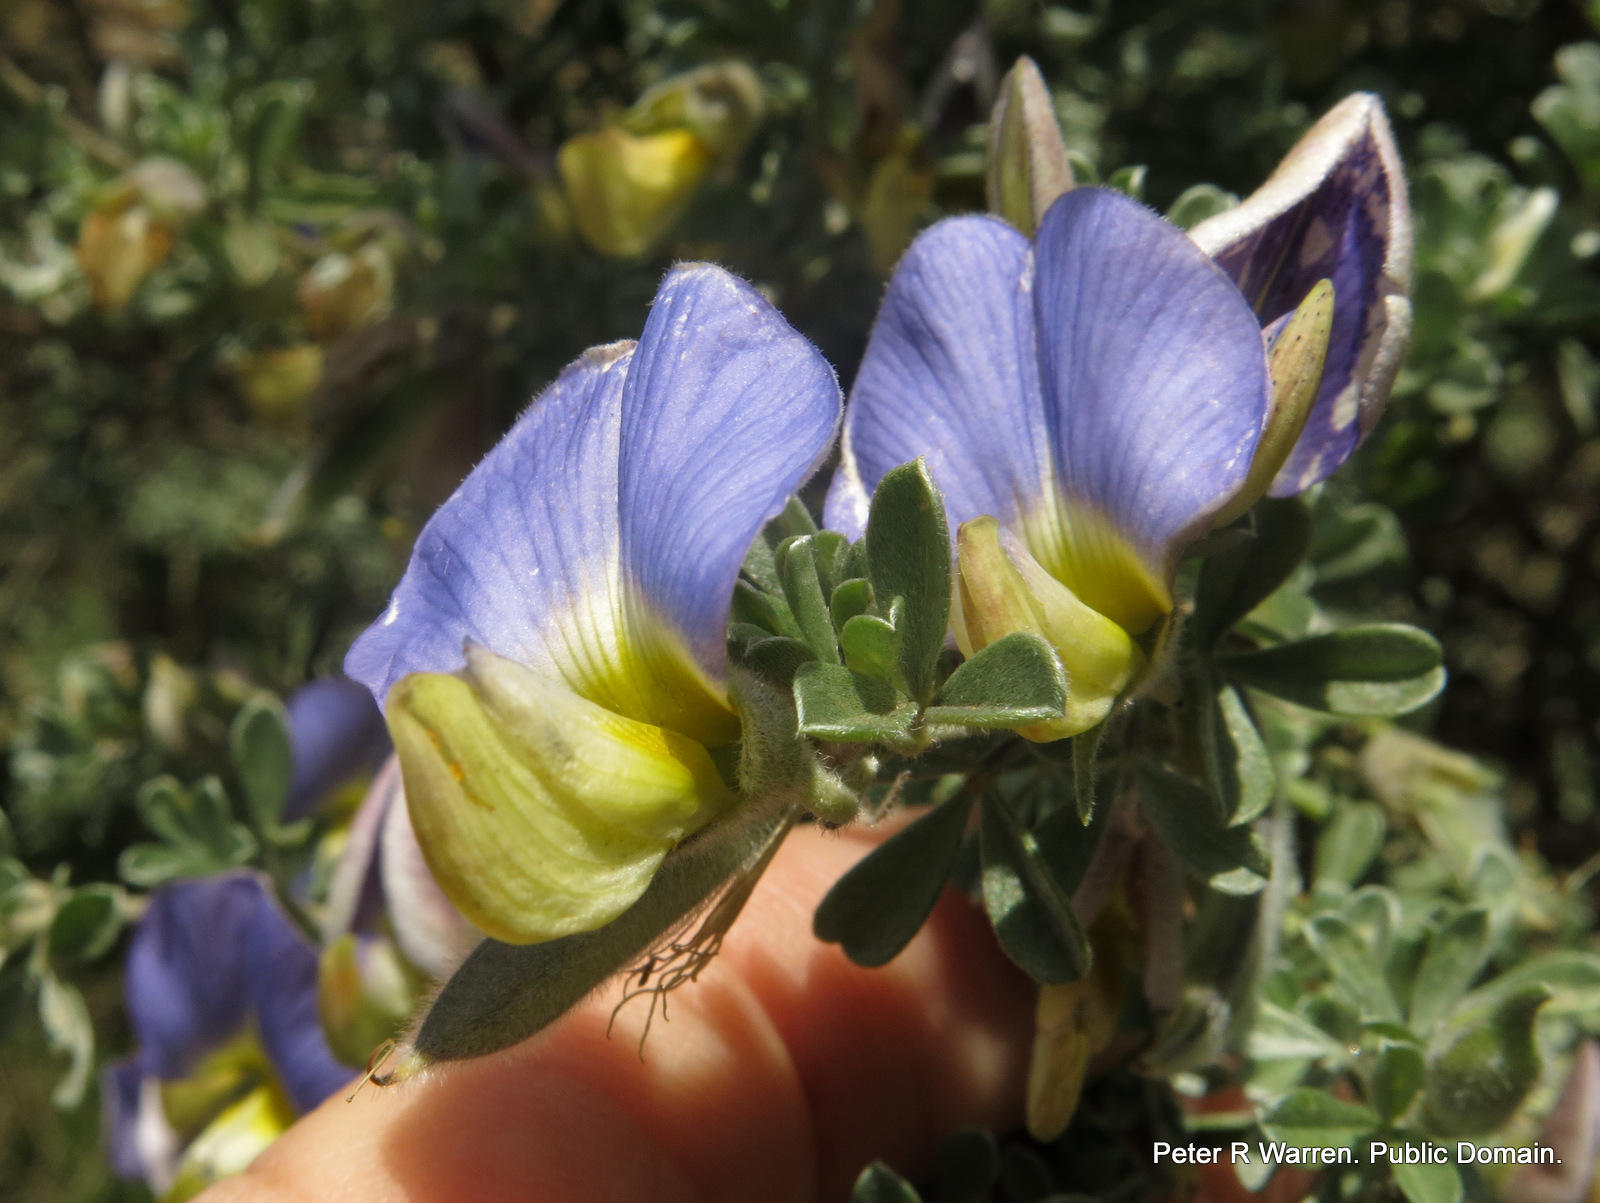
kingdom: Plantae
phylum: Tracheophyta
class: Magnoliopsida
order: Fabales
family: Fabaceae
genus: Lotononis
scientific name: Lotononis sericophylla
